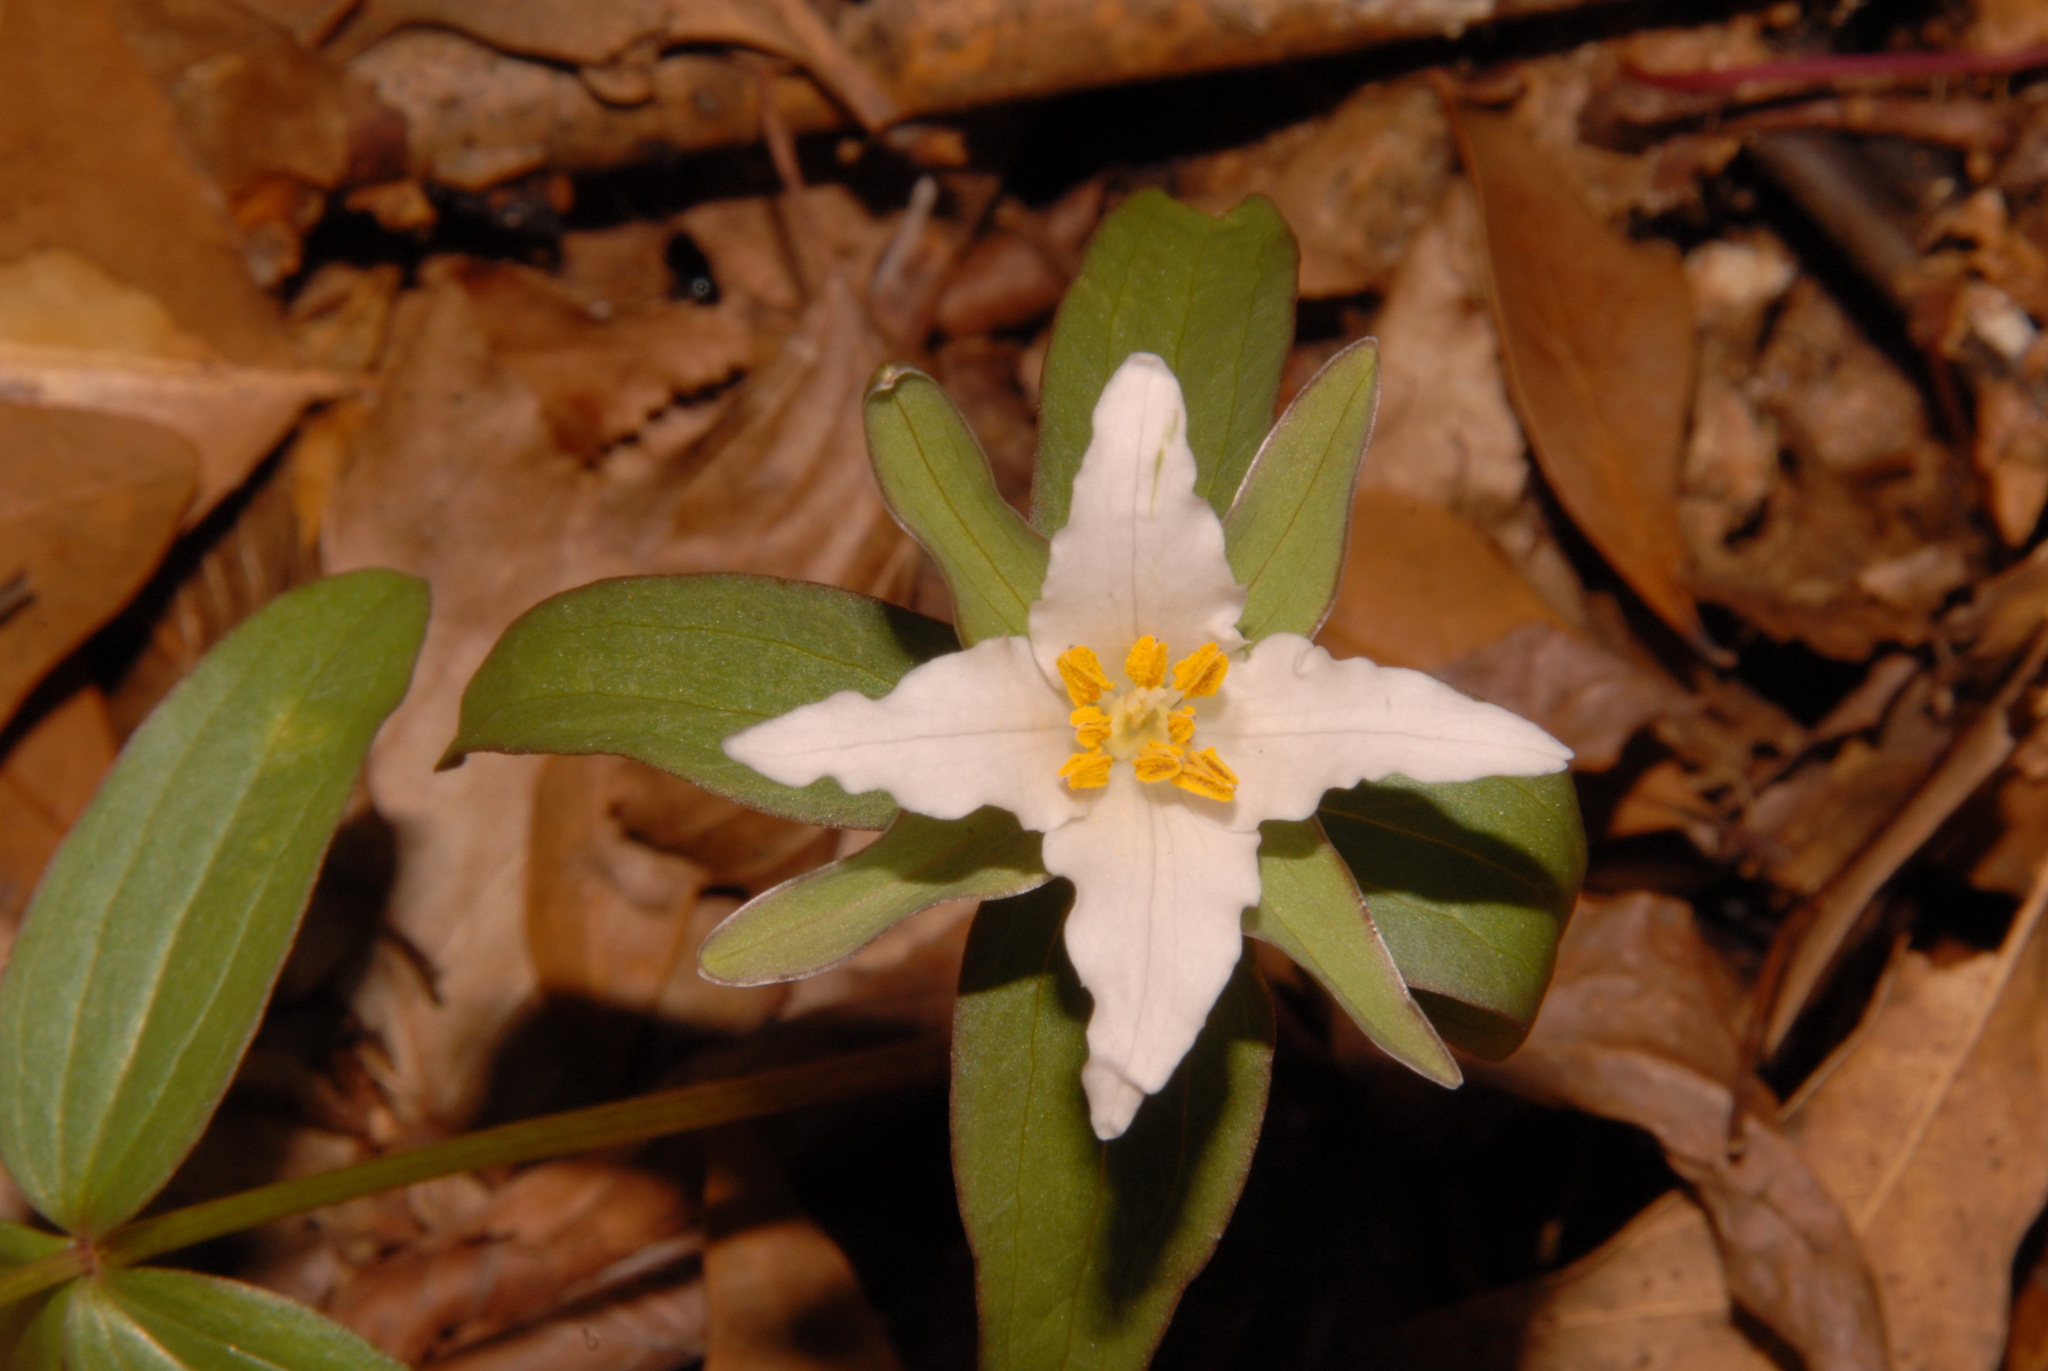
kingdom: Plantae
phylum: Tracheophyta
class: Liliopsida
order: Liliales
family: Melanthiaceae
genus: Trillium
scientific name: Trillium pusillum
